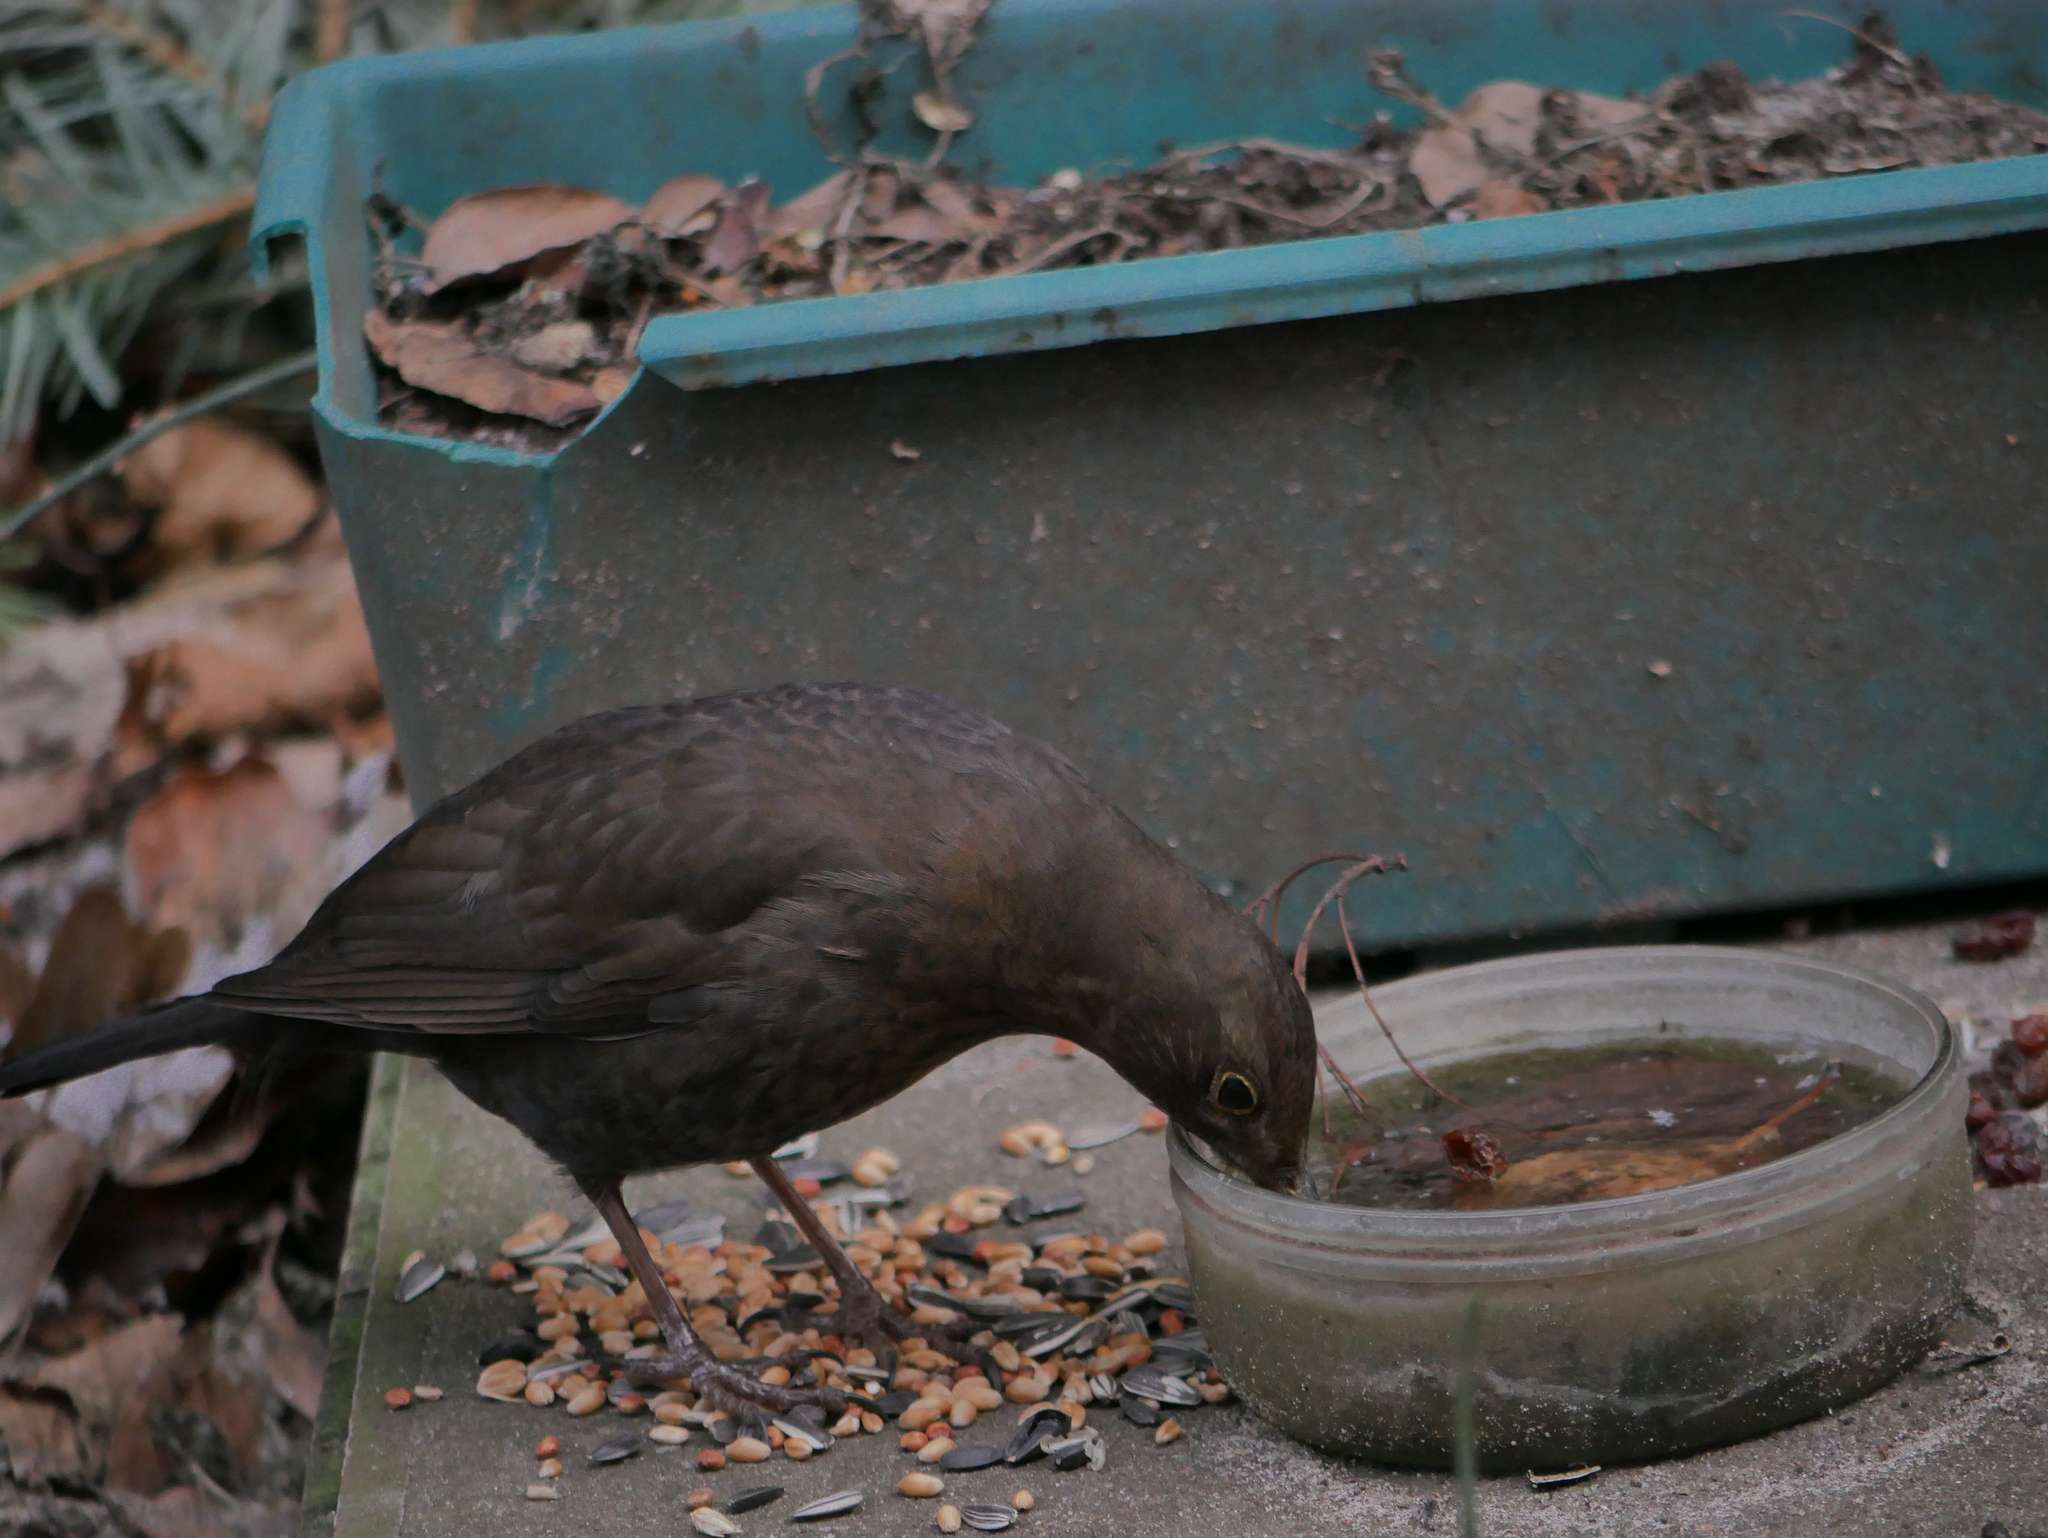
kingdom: Animalia
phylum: Chordata
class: Aves
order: Passeriformes
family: Turdidae
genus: Turdus
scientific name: Turdus merula
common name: Common blackbird
